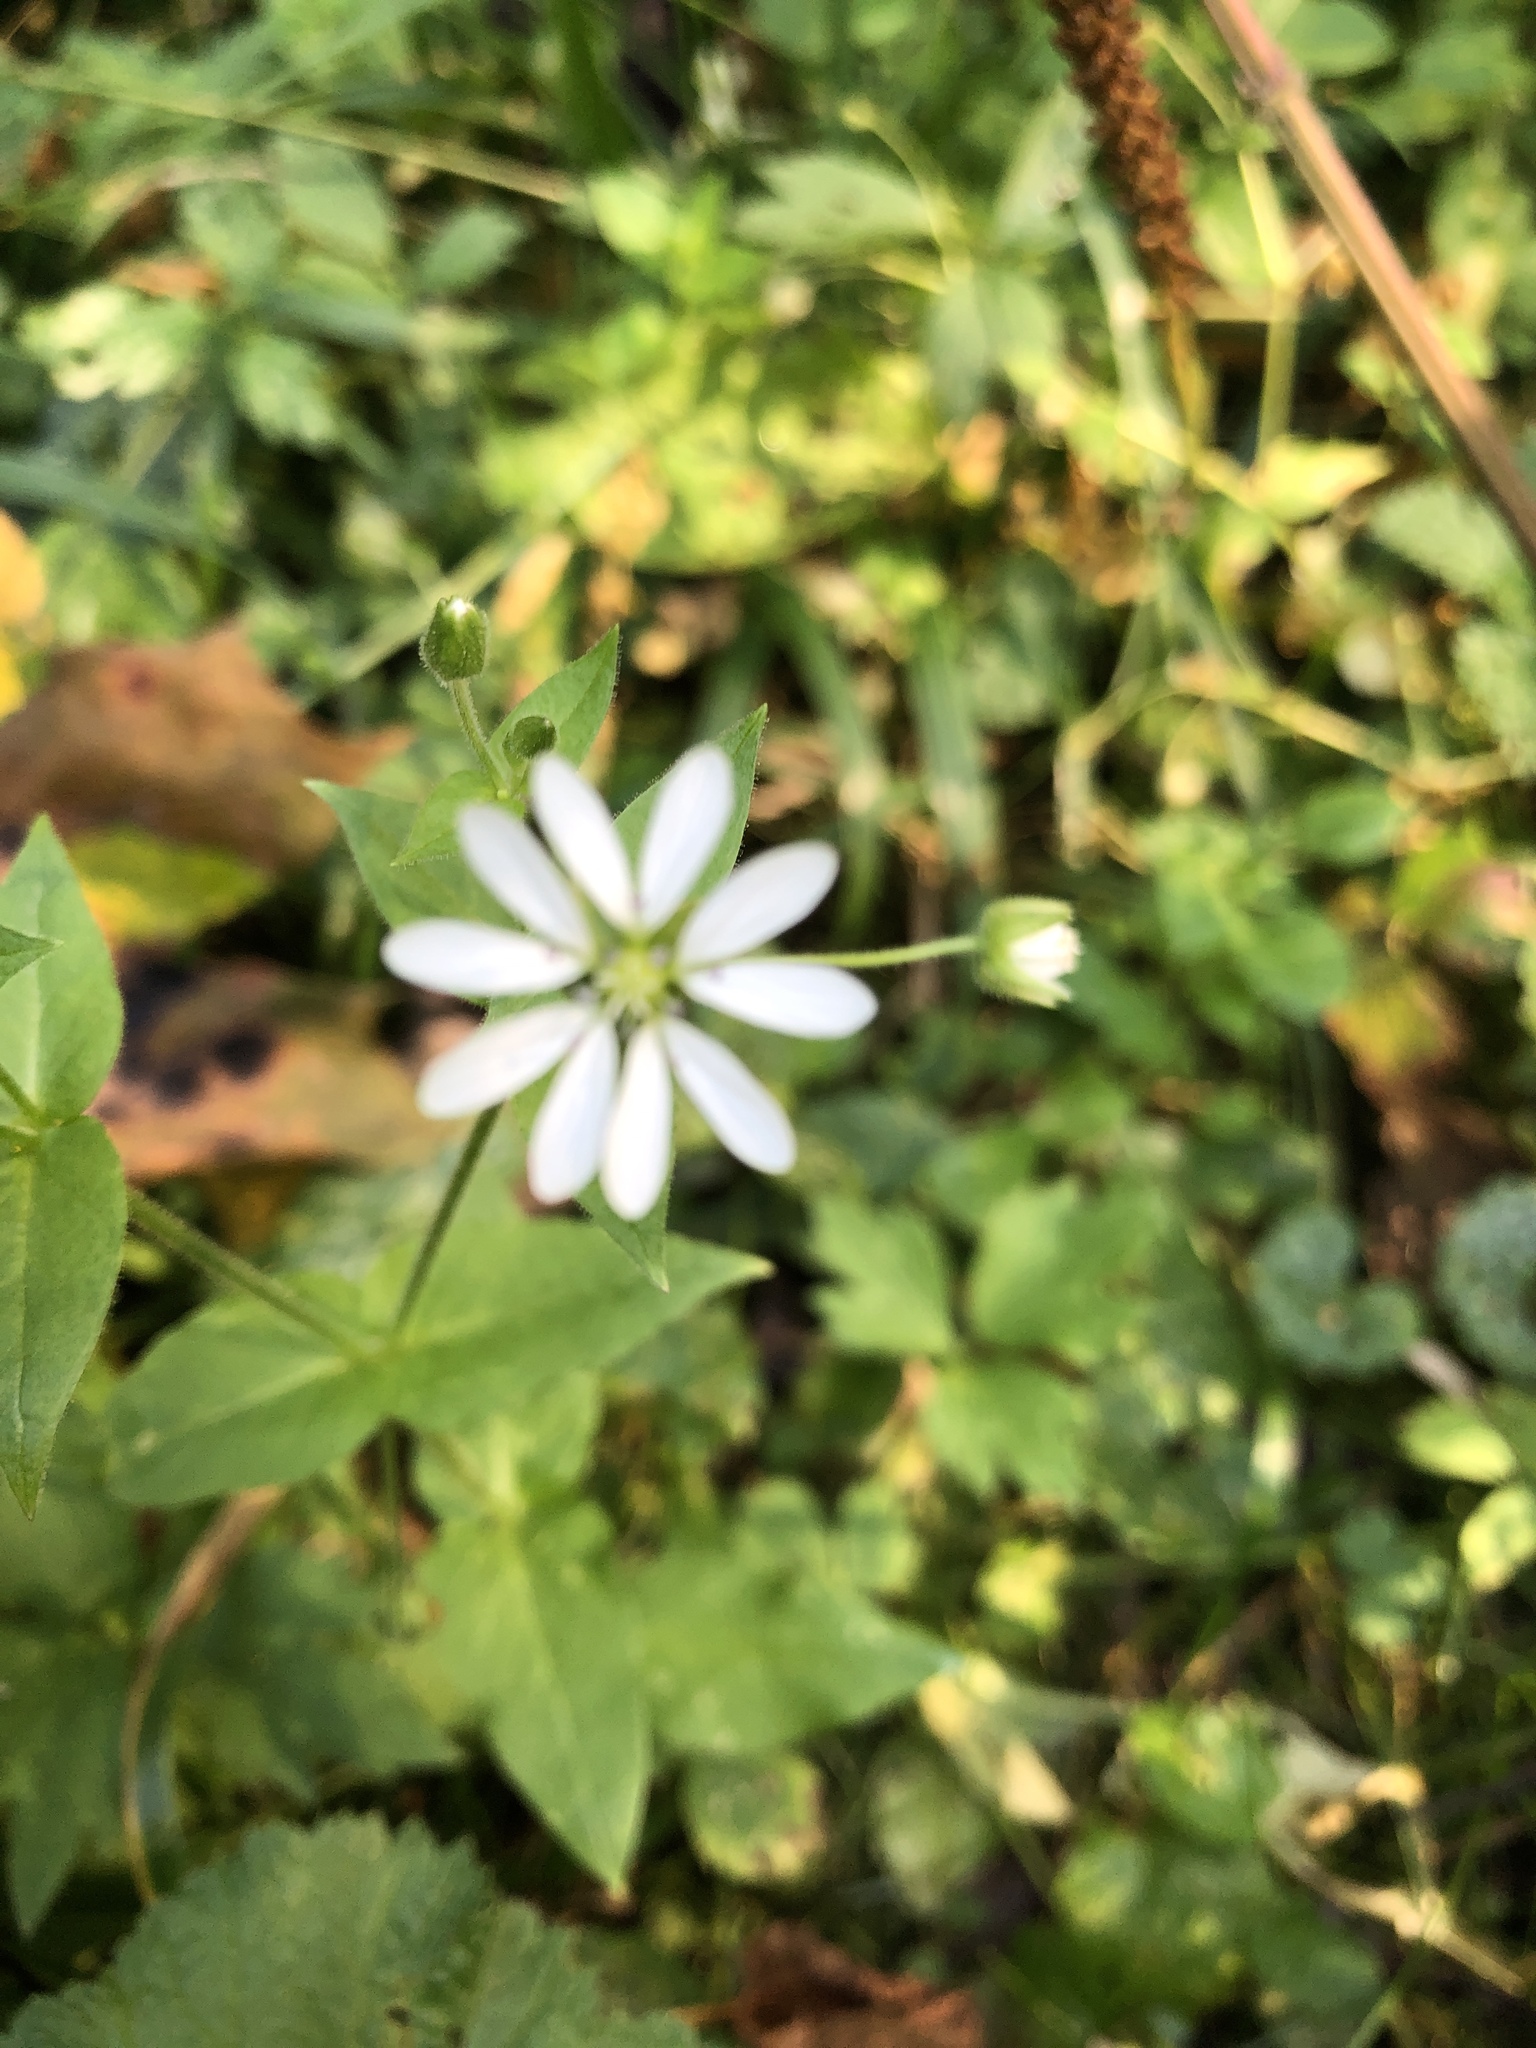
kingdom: Plantae
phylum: Tracheophyta
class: Magnoliopsida
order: Caryophyllales
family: Caryophyllaceae
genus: Stellaria
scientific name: Stellaria aquatica
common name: Water chickweed
